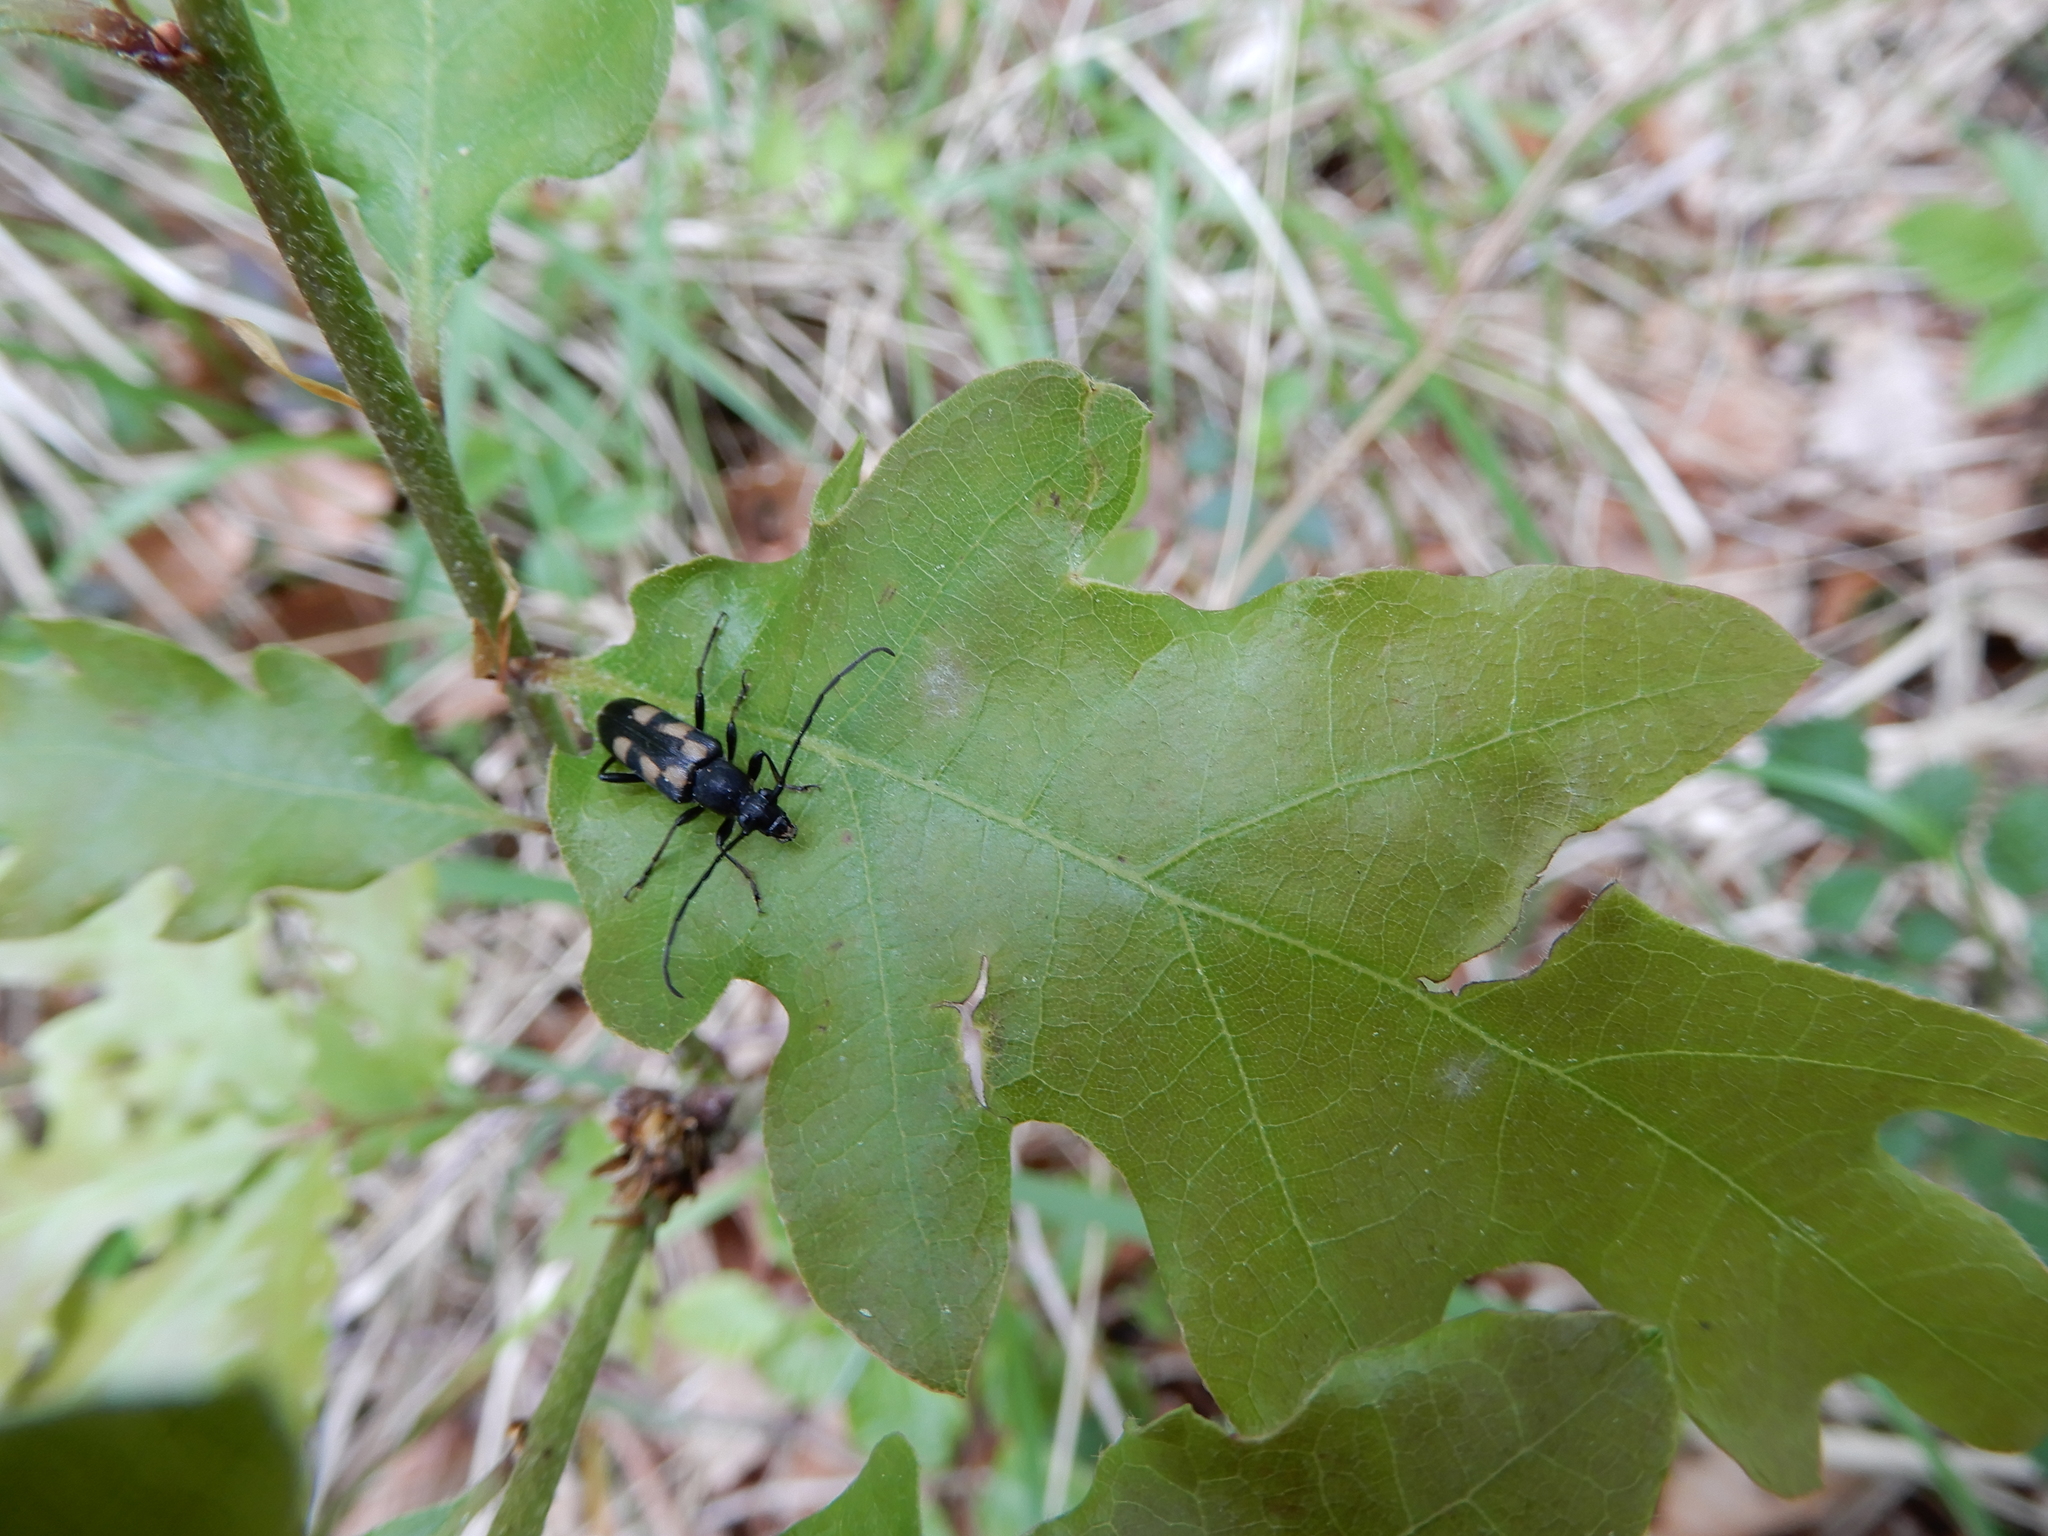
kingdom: Animalia
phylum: Arthropoda
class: Insecta
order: Coleoptera
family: Cerambycidae
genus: Anoplodera
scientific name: Anoplodera sexguttata
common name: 6 spotted longhorn
